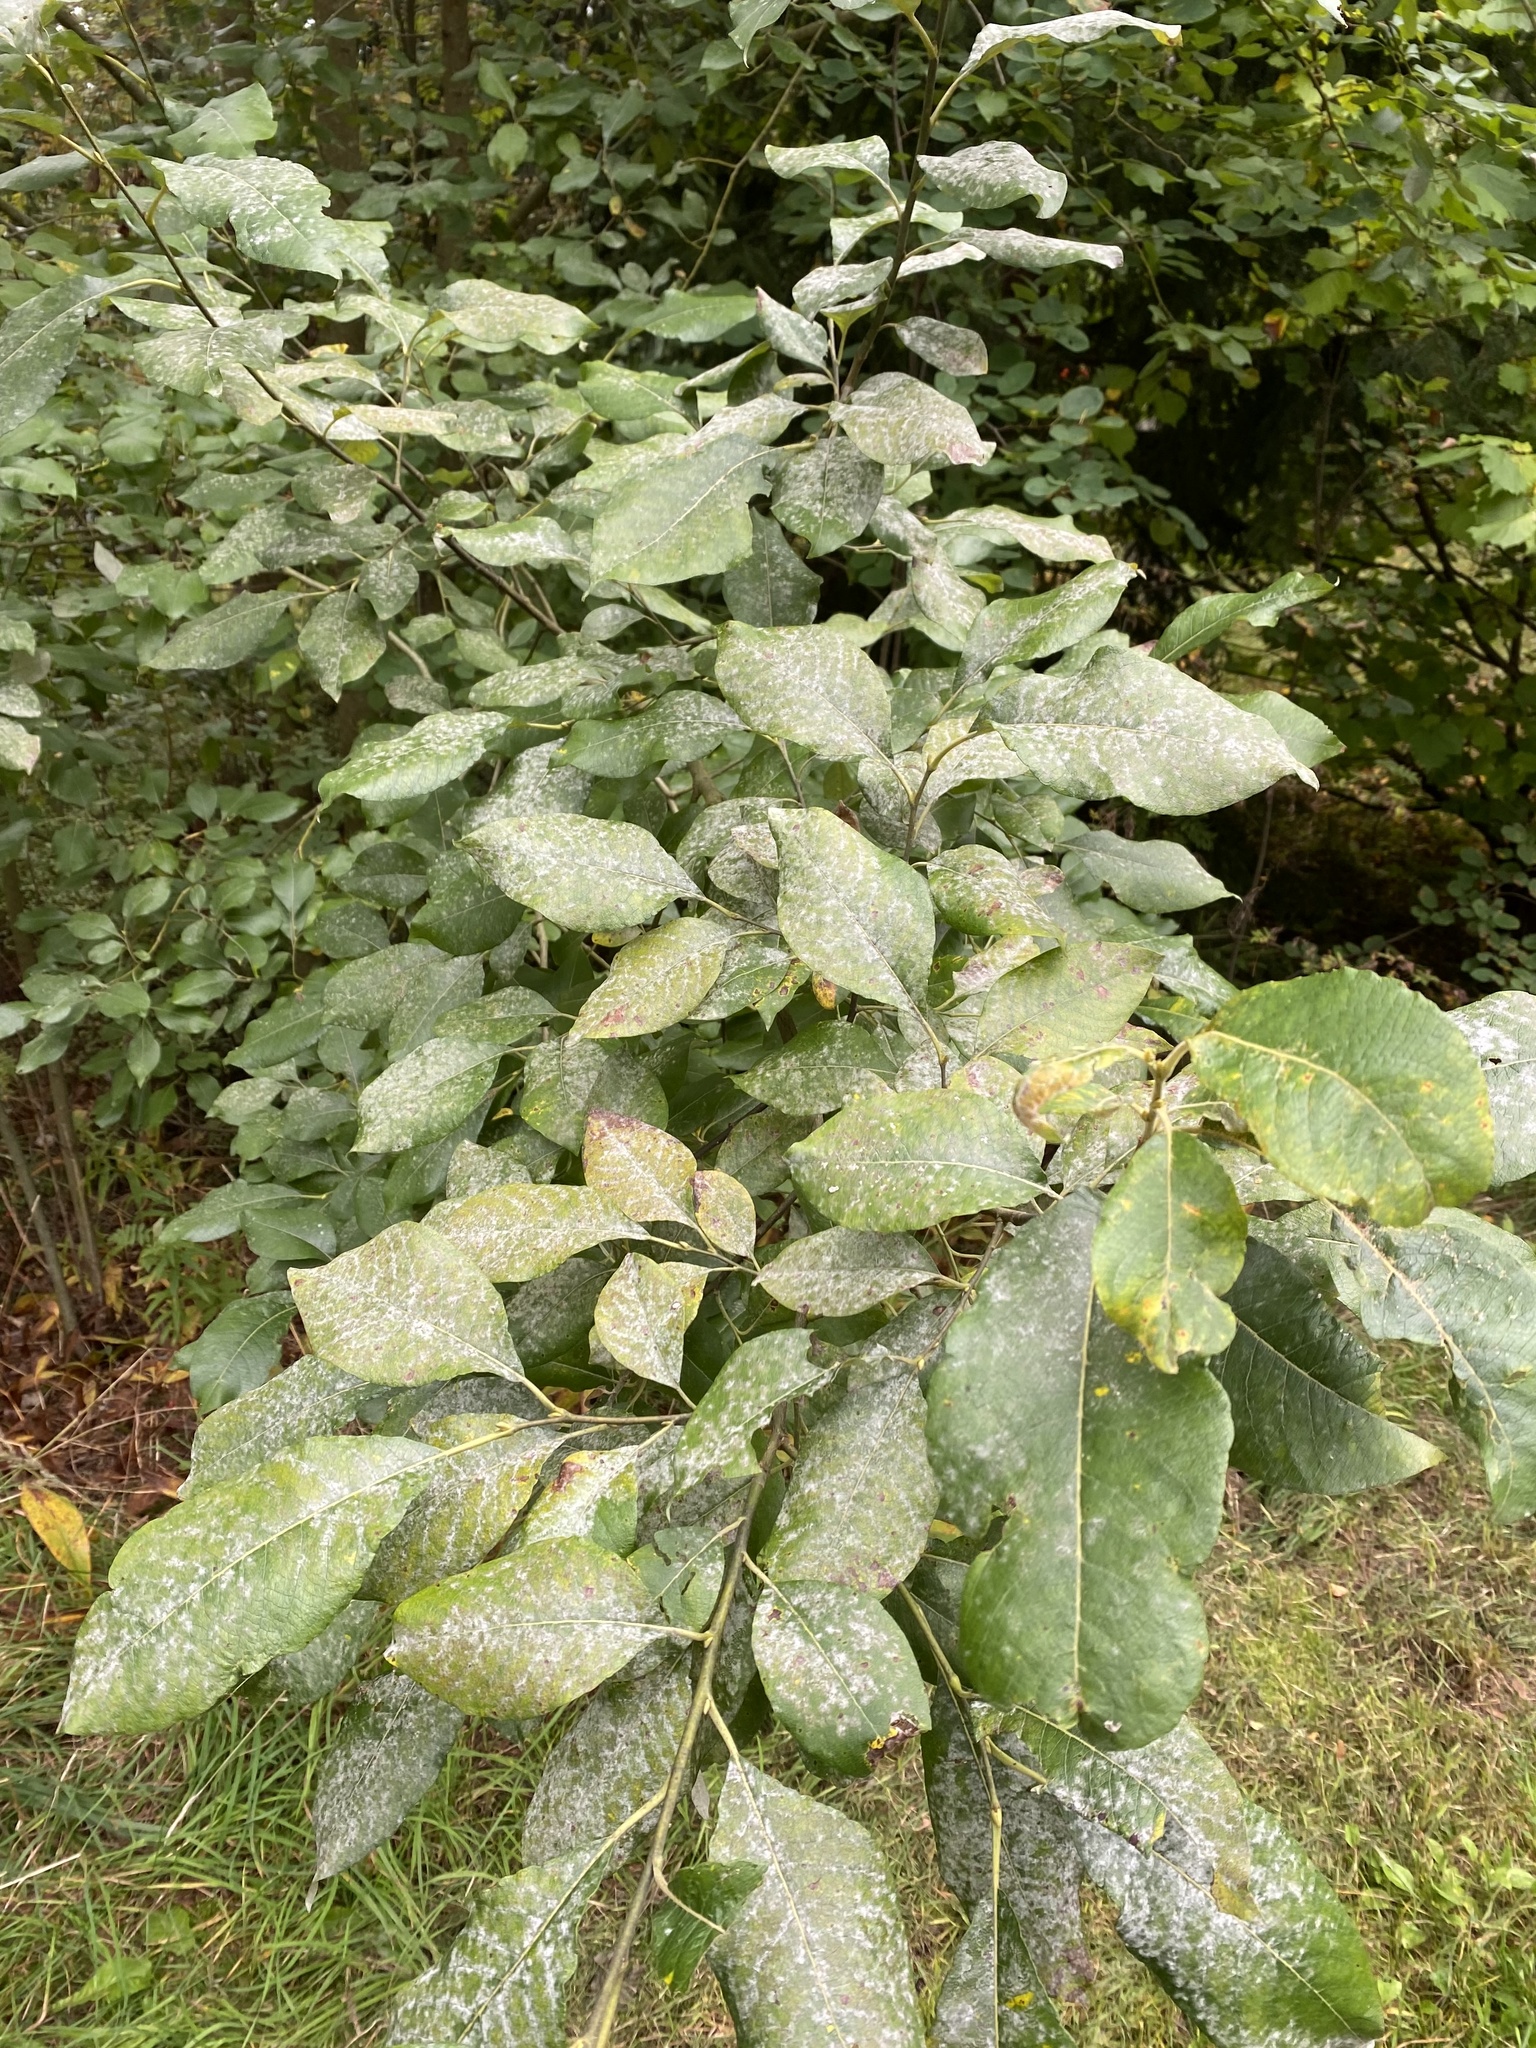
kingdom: Fungi
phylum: Ascomycota
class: Leotiomycetes
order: Helotiales
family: Erysiphaceae
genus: Erysiphe
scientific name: Erysiphe adunca
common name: Willow mildew
